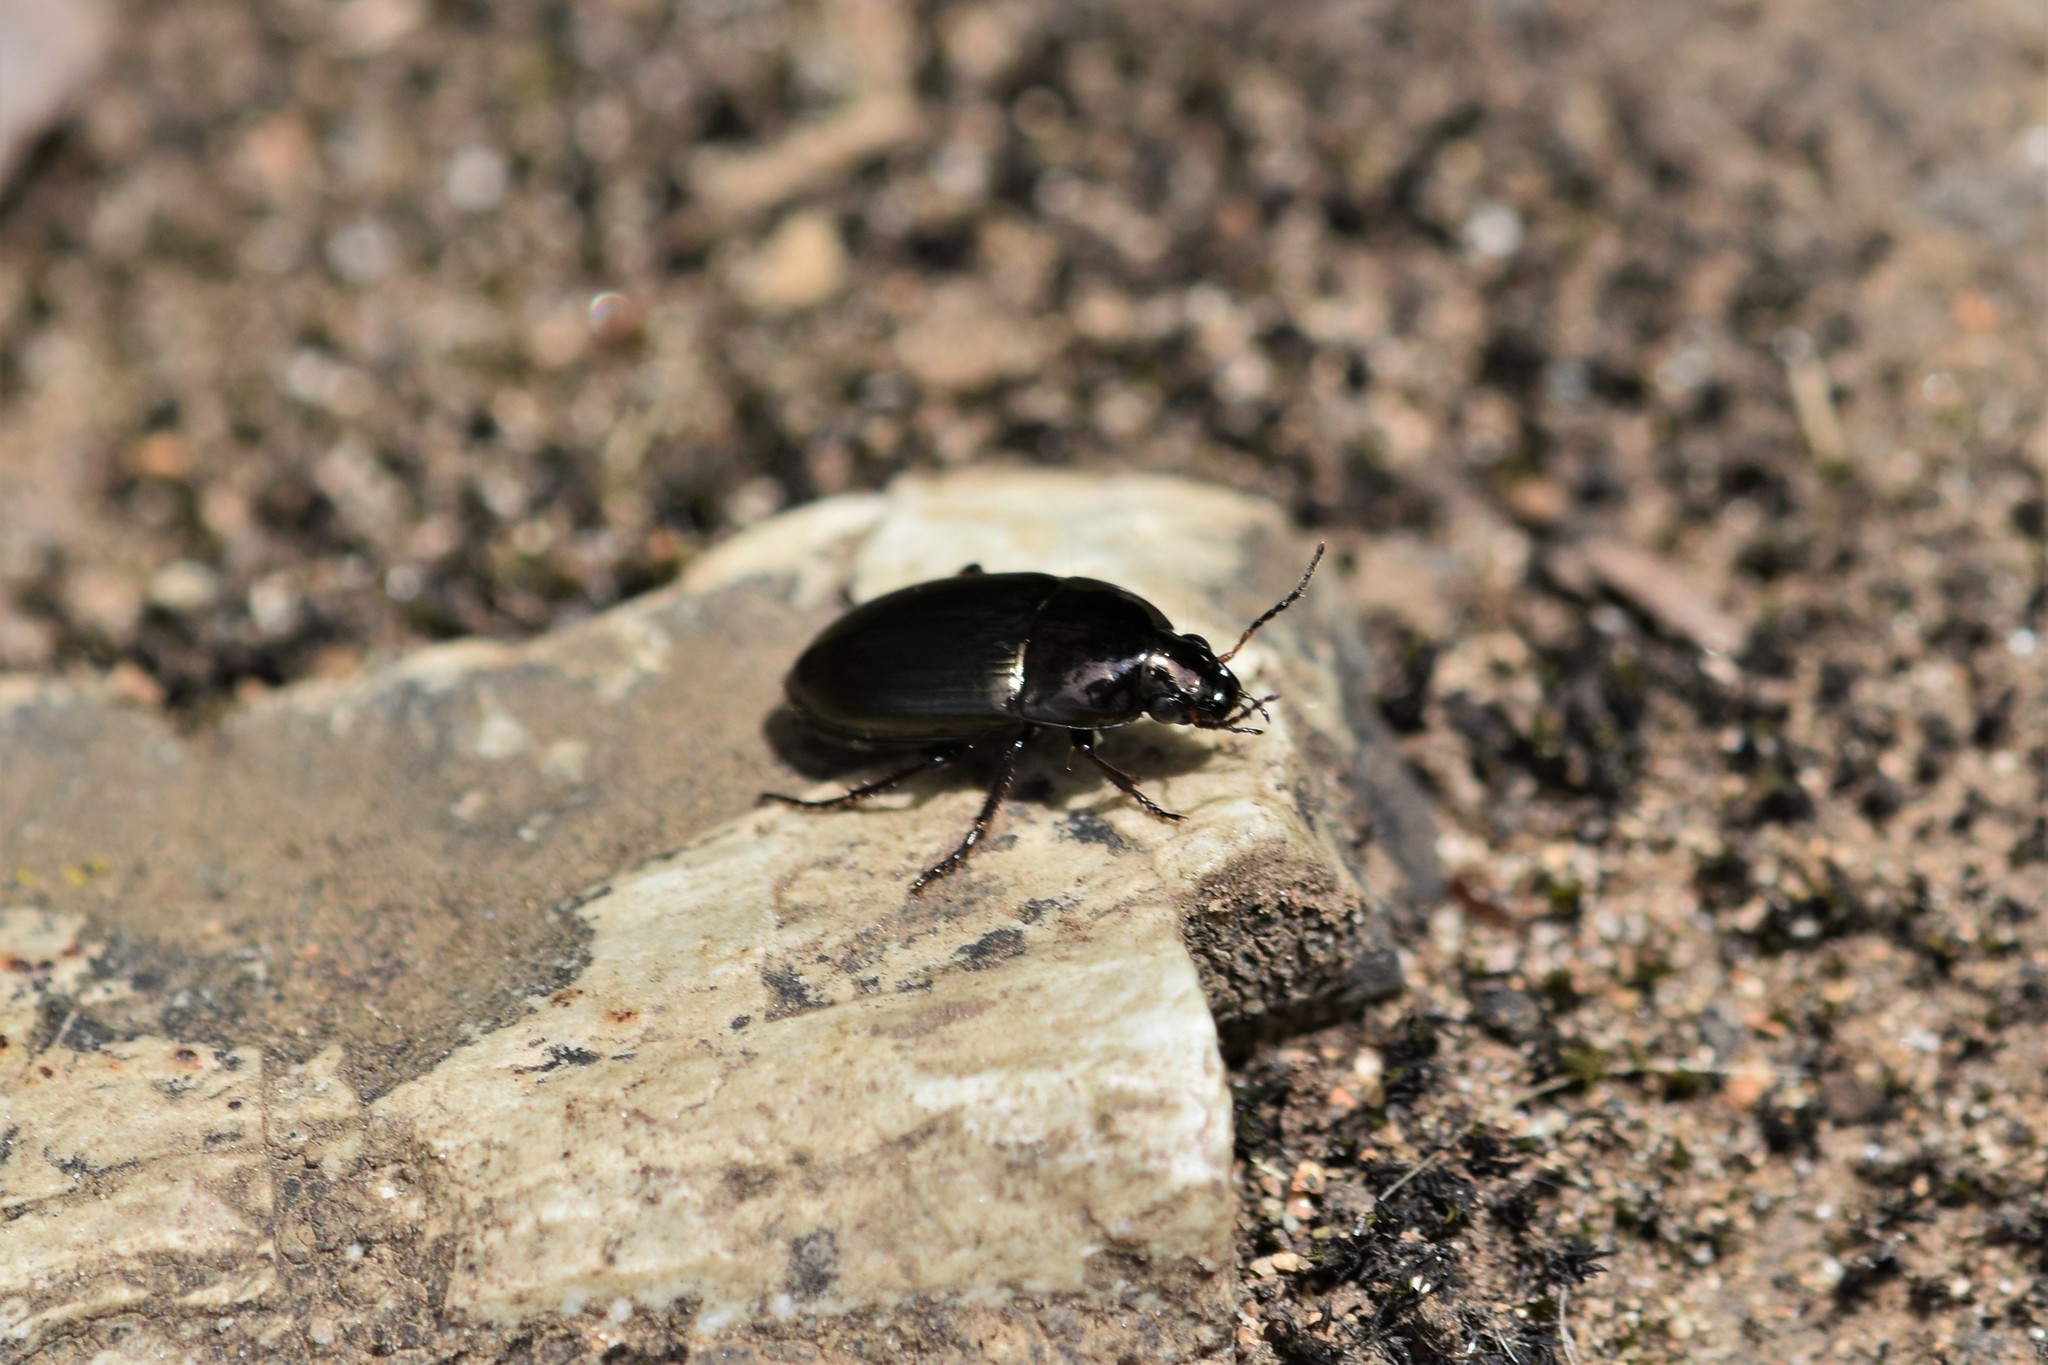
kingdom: Animalia
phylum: Arthropoda
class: Insecta
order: Coleoptera
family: Carabidae
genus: Amara
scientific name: Amara aenea
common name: Common sun beetle
